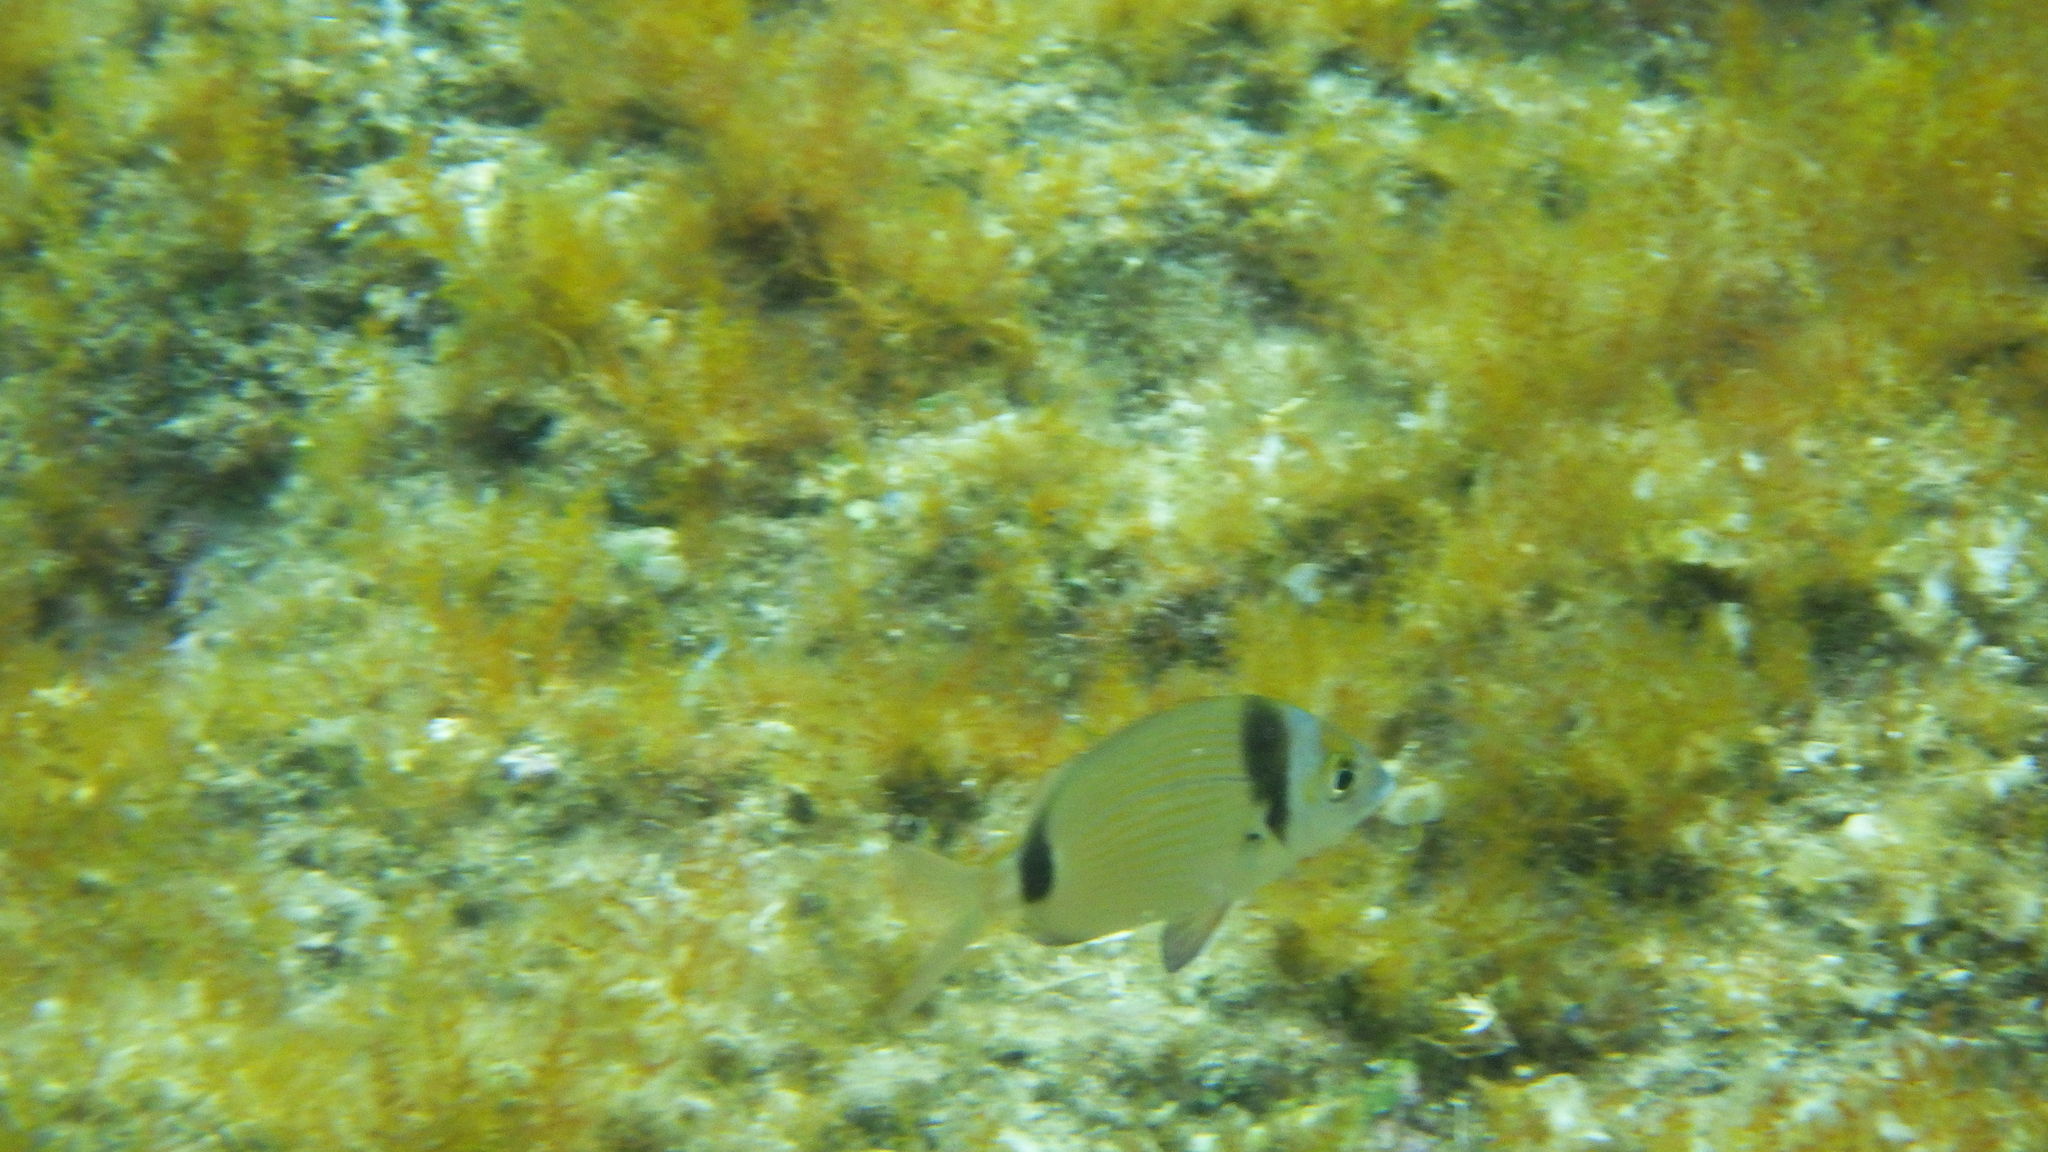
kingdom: Animalia
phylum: Chordata
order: Perciformes
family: Sparidae
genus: Diplodus
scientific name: Diplodus vulgaris
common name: Common two-banded seabream
